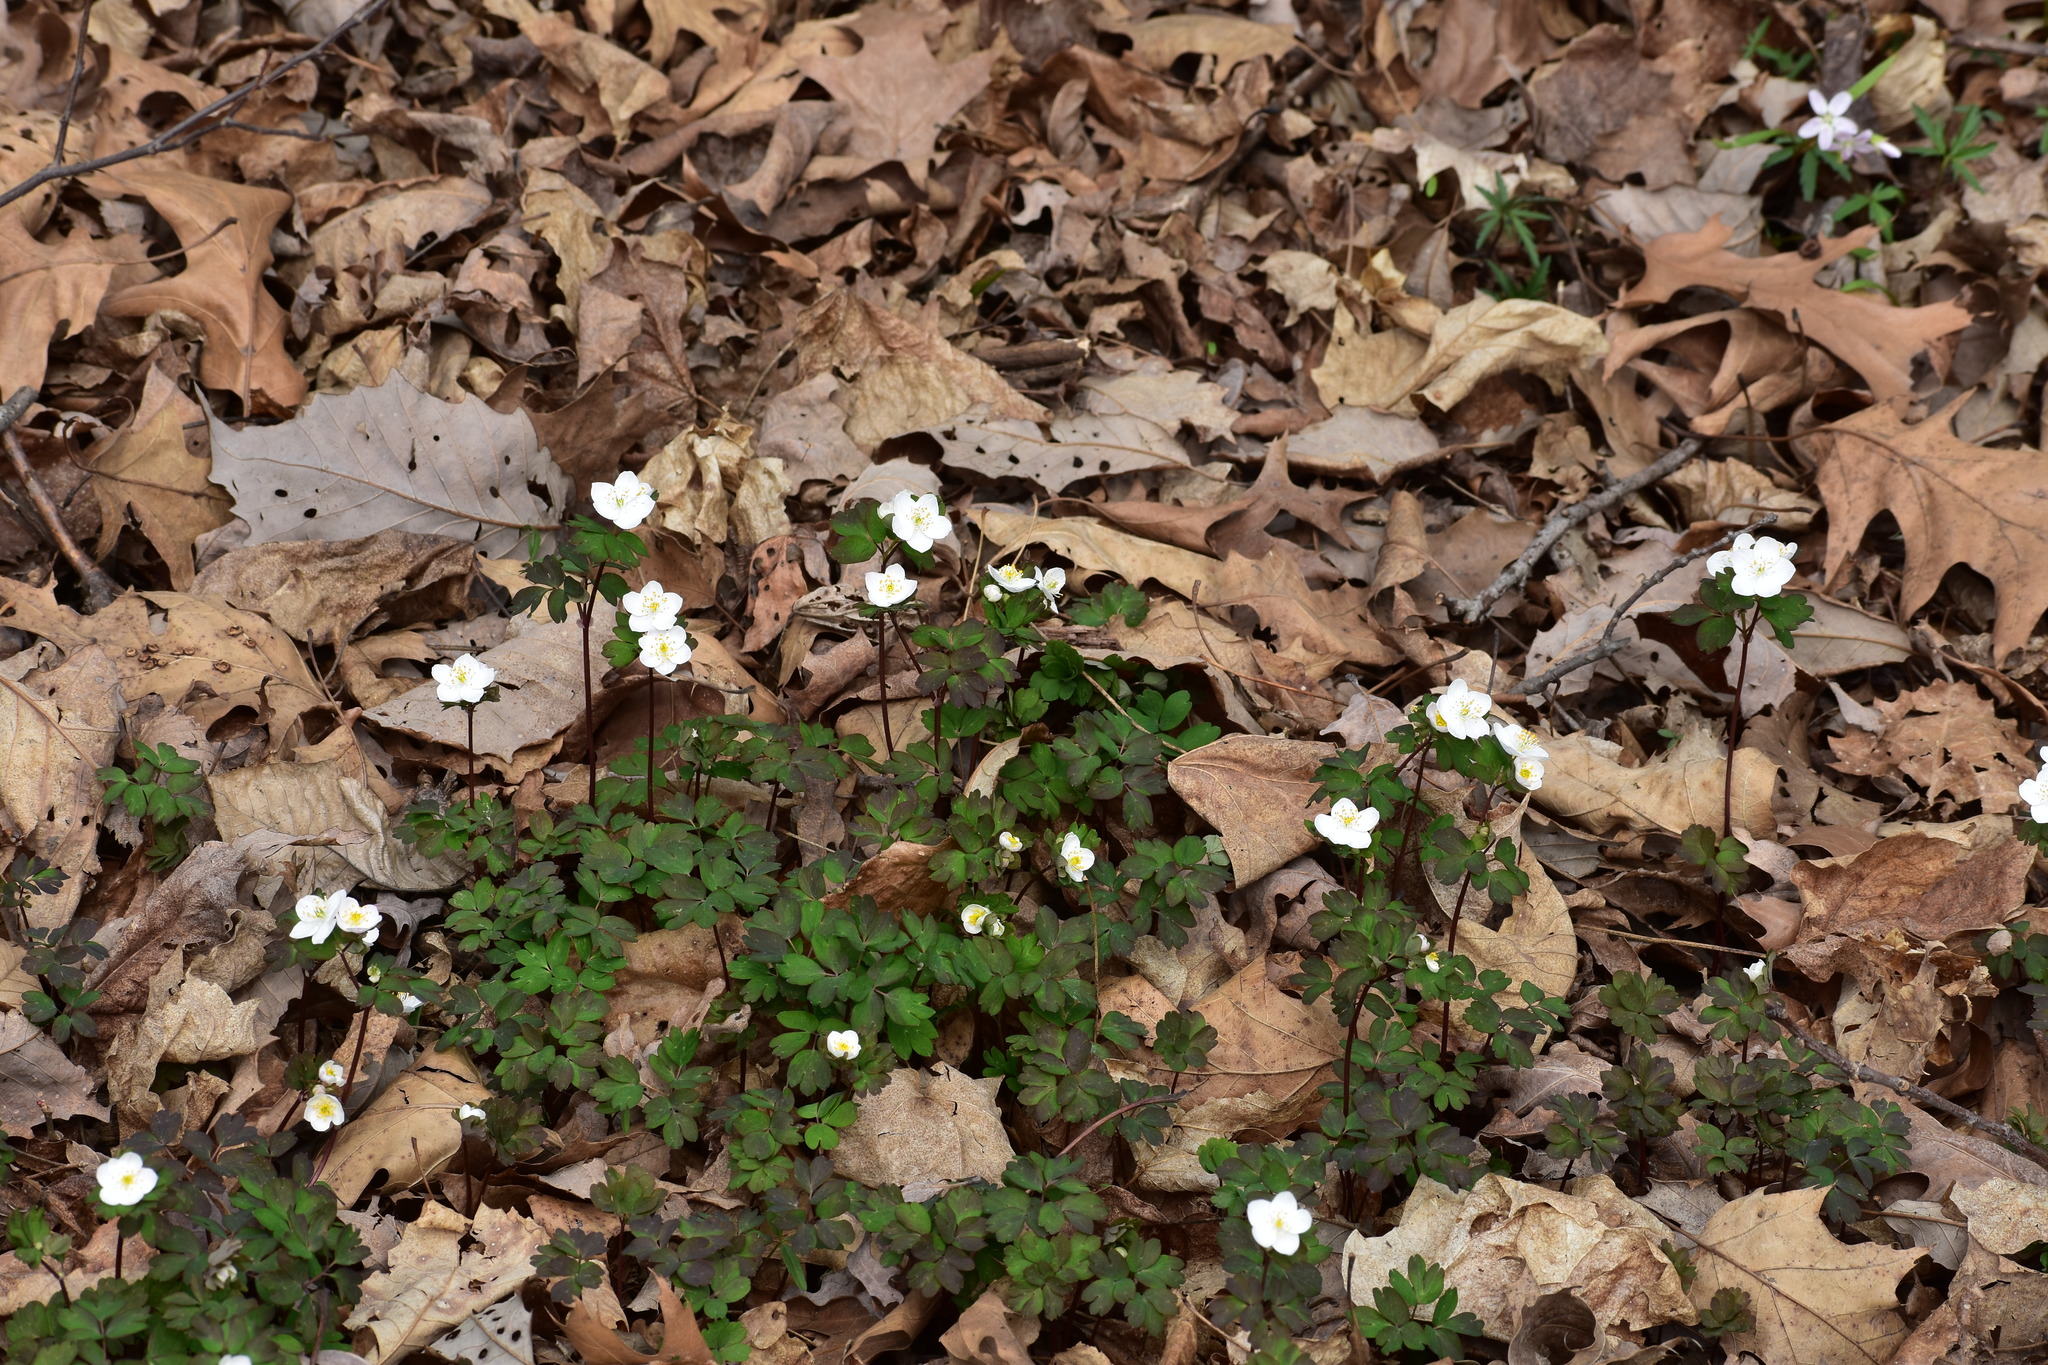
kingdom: Plantae
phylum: Tracheophyta
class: Magnoliopsida
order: Ranunculales
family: Ranunculaceae
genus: Enemion
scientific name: Enemion biternatum
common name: Eastern false rue-anemone
